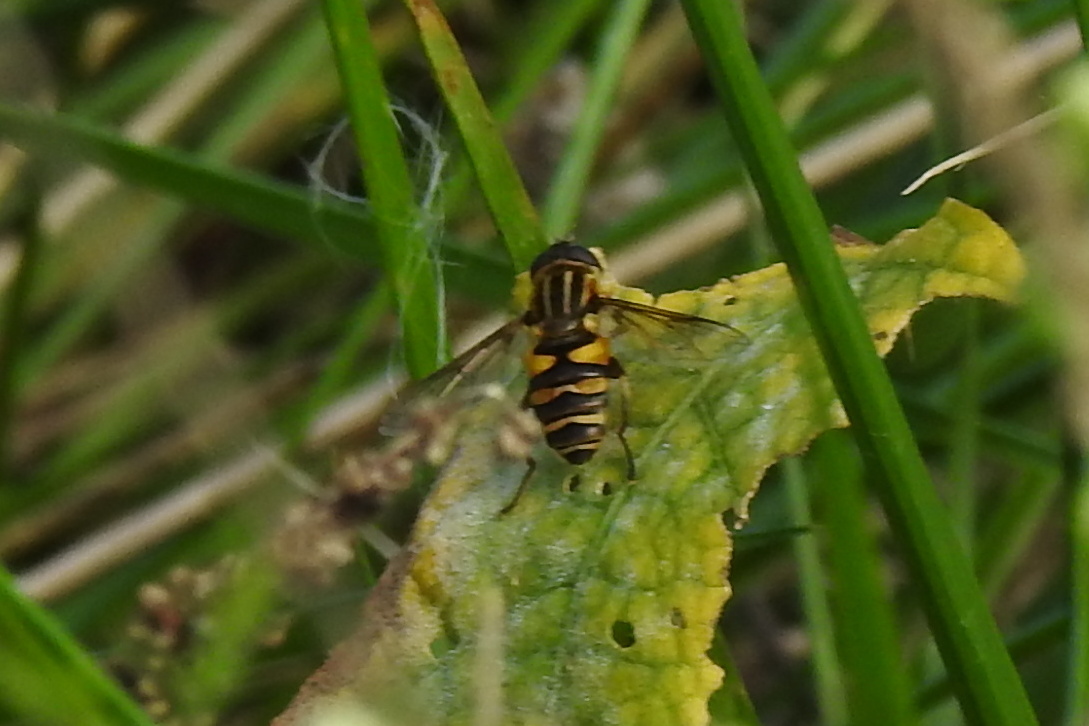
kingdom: Animalia
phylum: Arthropoda
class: Insecta
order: Diptera
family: Syrphidae
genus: Helophilus
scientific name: Helophilus fasciatus
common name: Narrow-headed marsh fly
